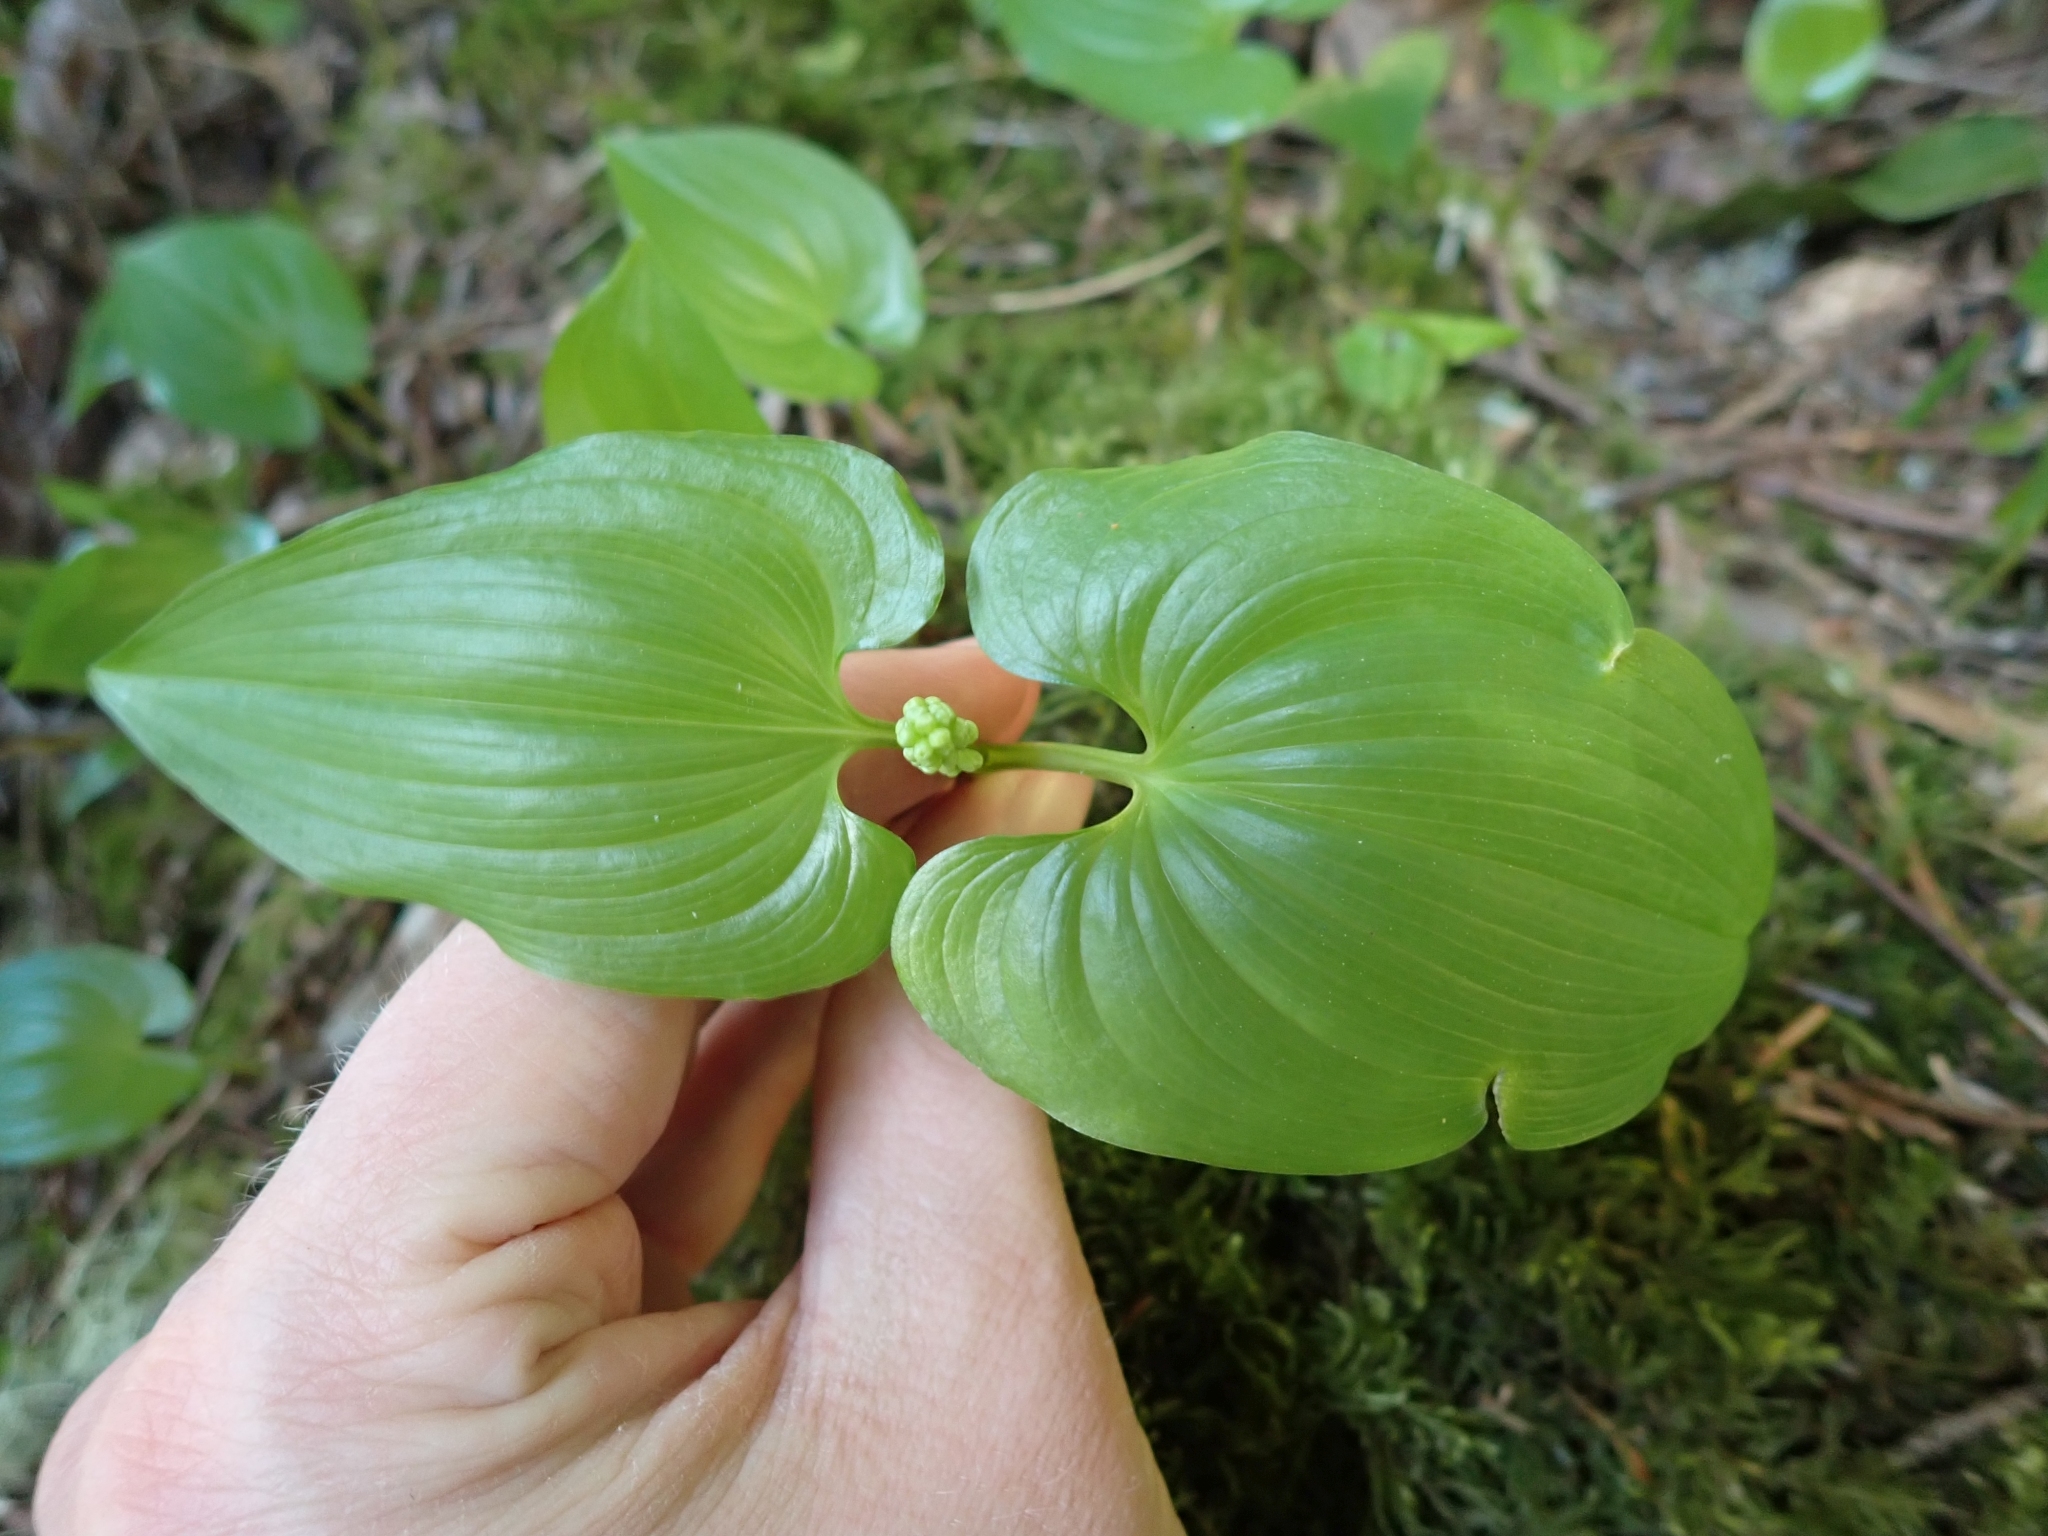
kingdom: Plantae
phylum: Tracheophyta
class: Liliopsida
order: Asparagales
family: Asparagaceae
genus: Maianthemum
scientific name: Maianthemum dilatatum
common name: False lily-of-the-valley
